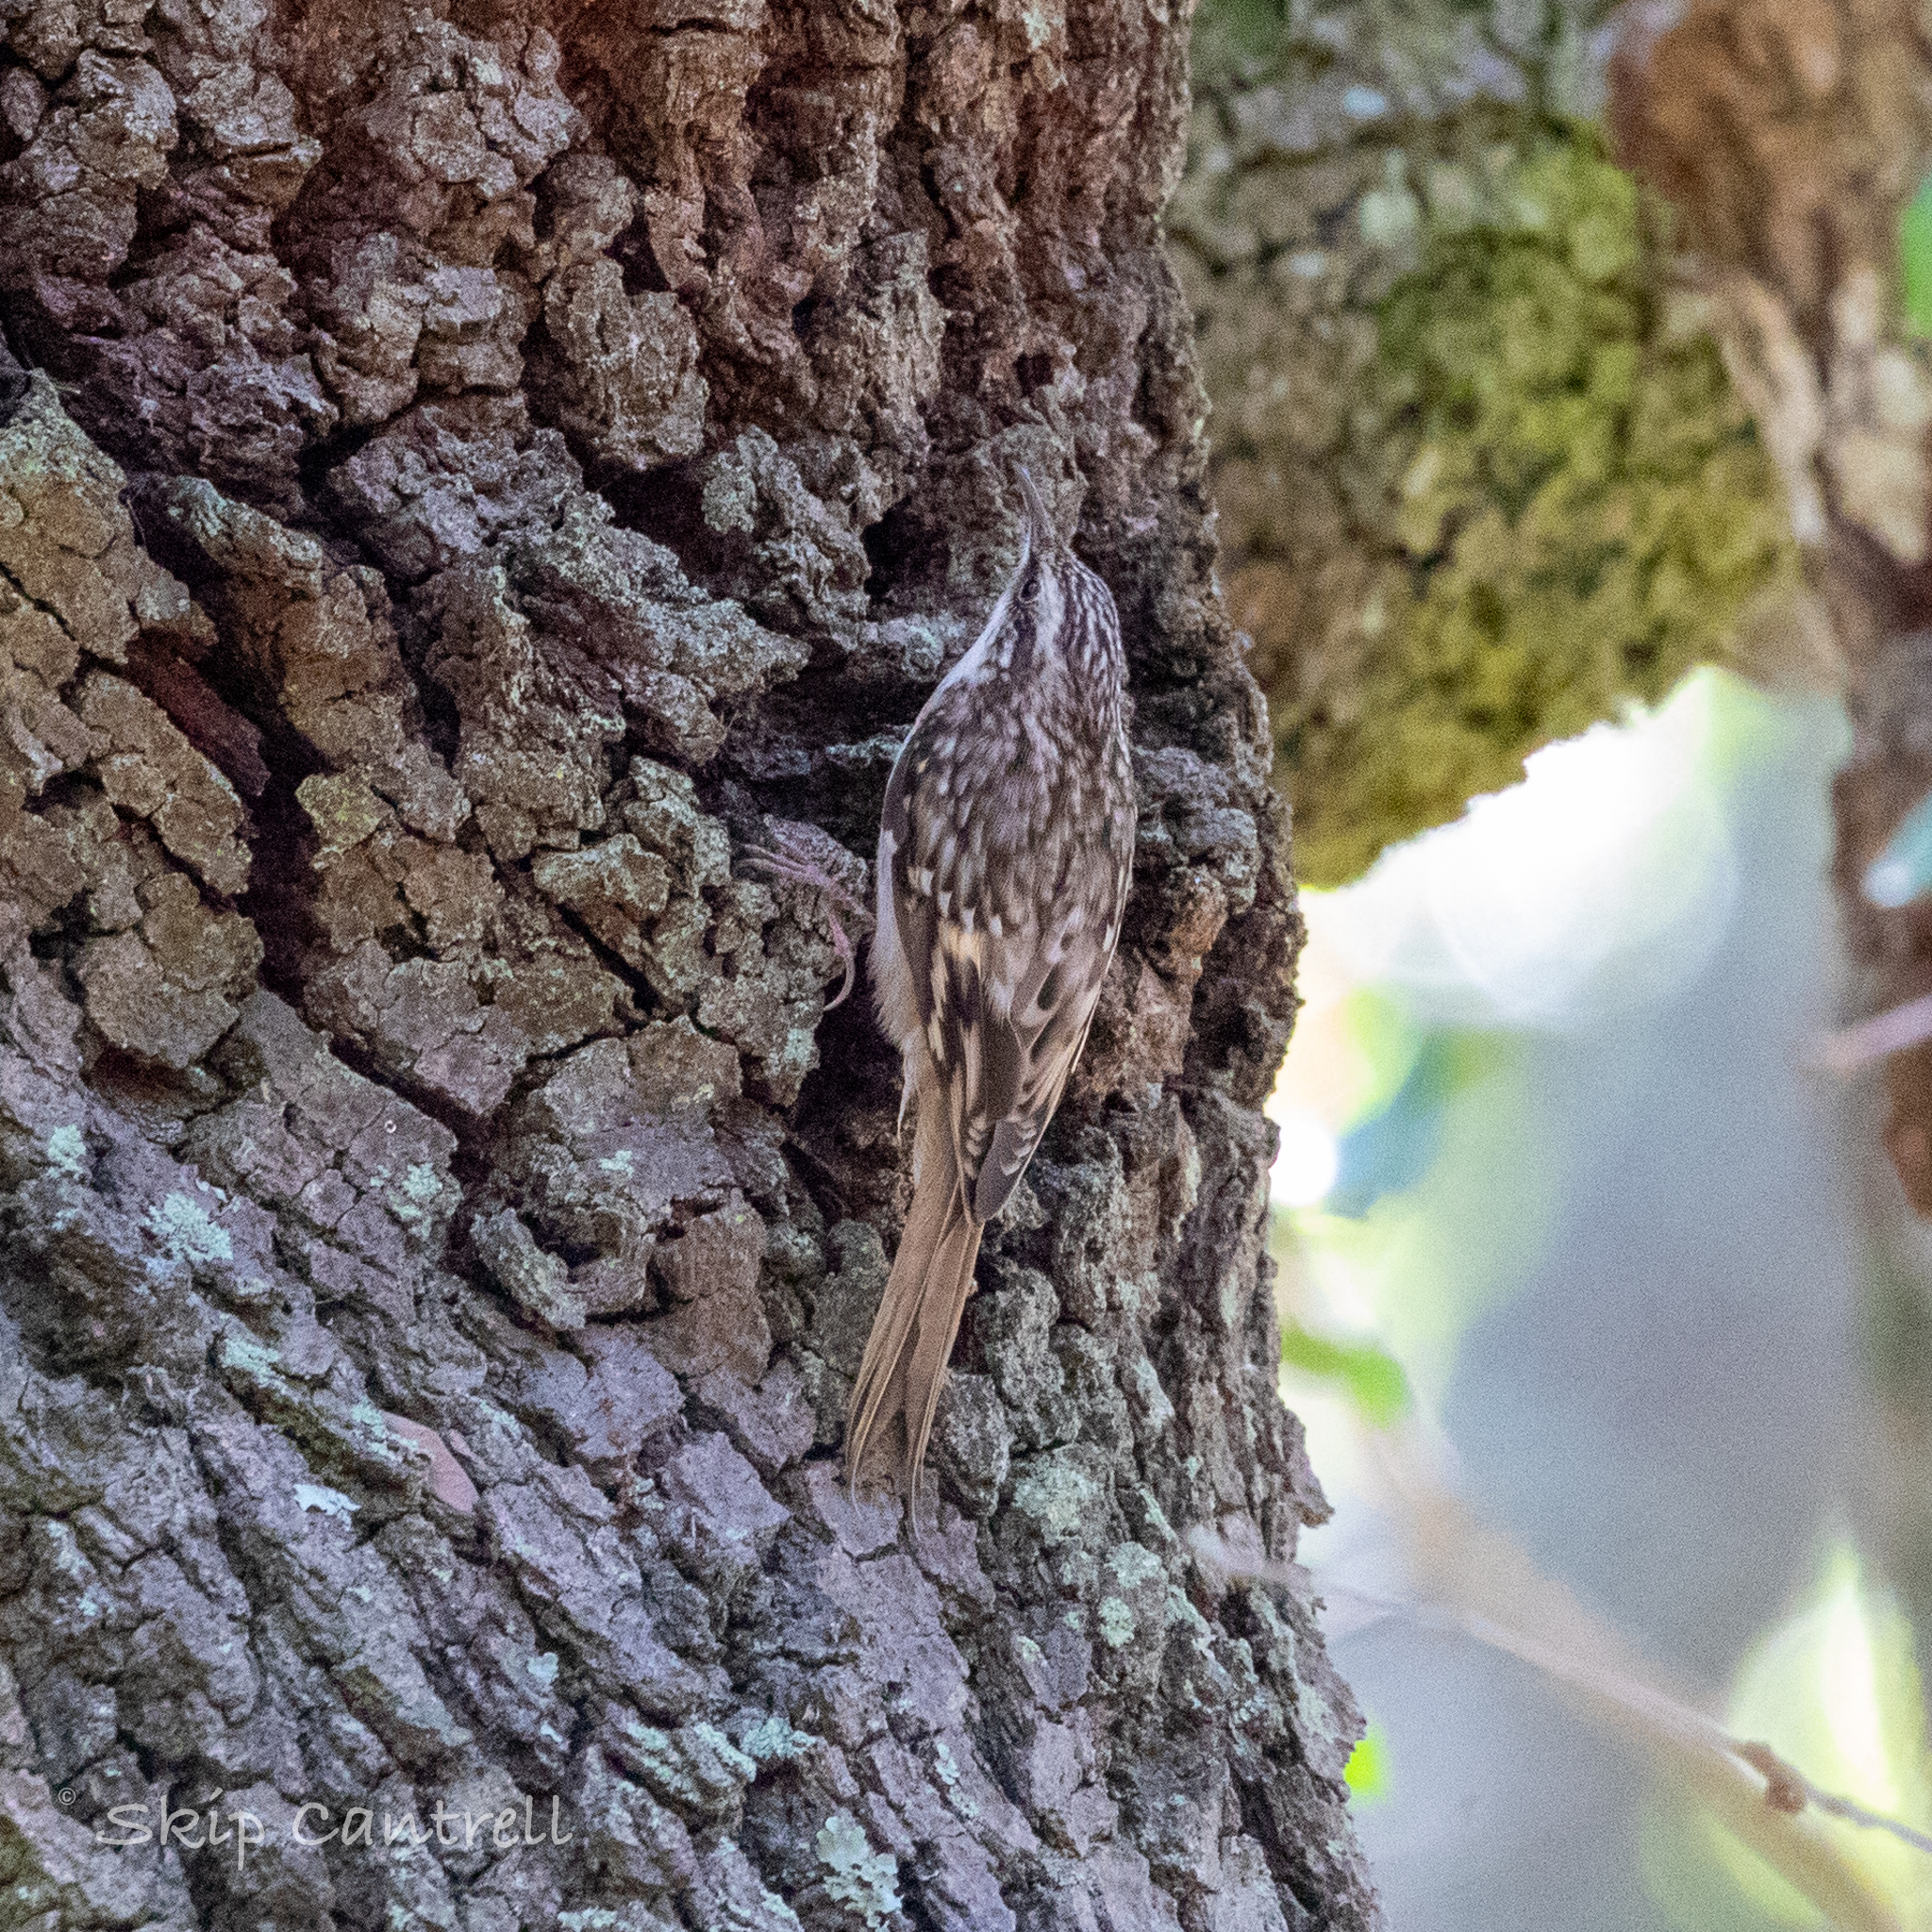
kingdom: Animalia
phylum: Chordata
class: Aves
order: Passeriformes
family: Certhiidae
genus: Certhia
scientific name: Certhia americana
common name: Brown creeper
